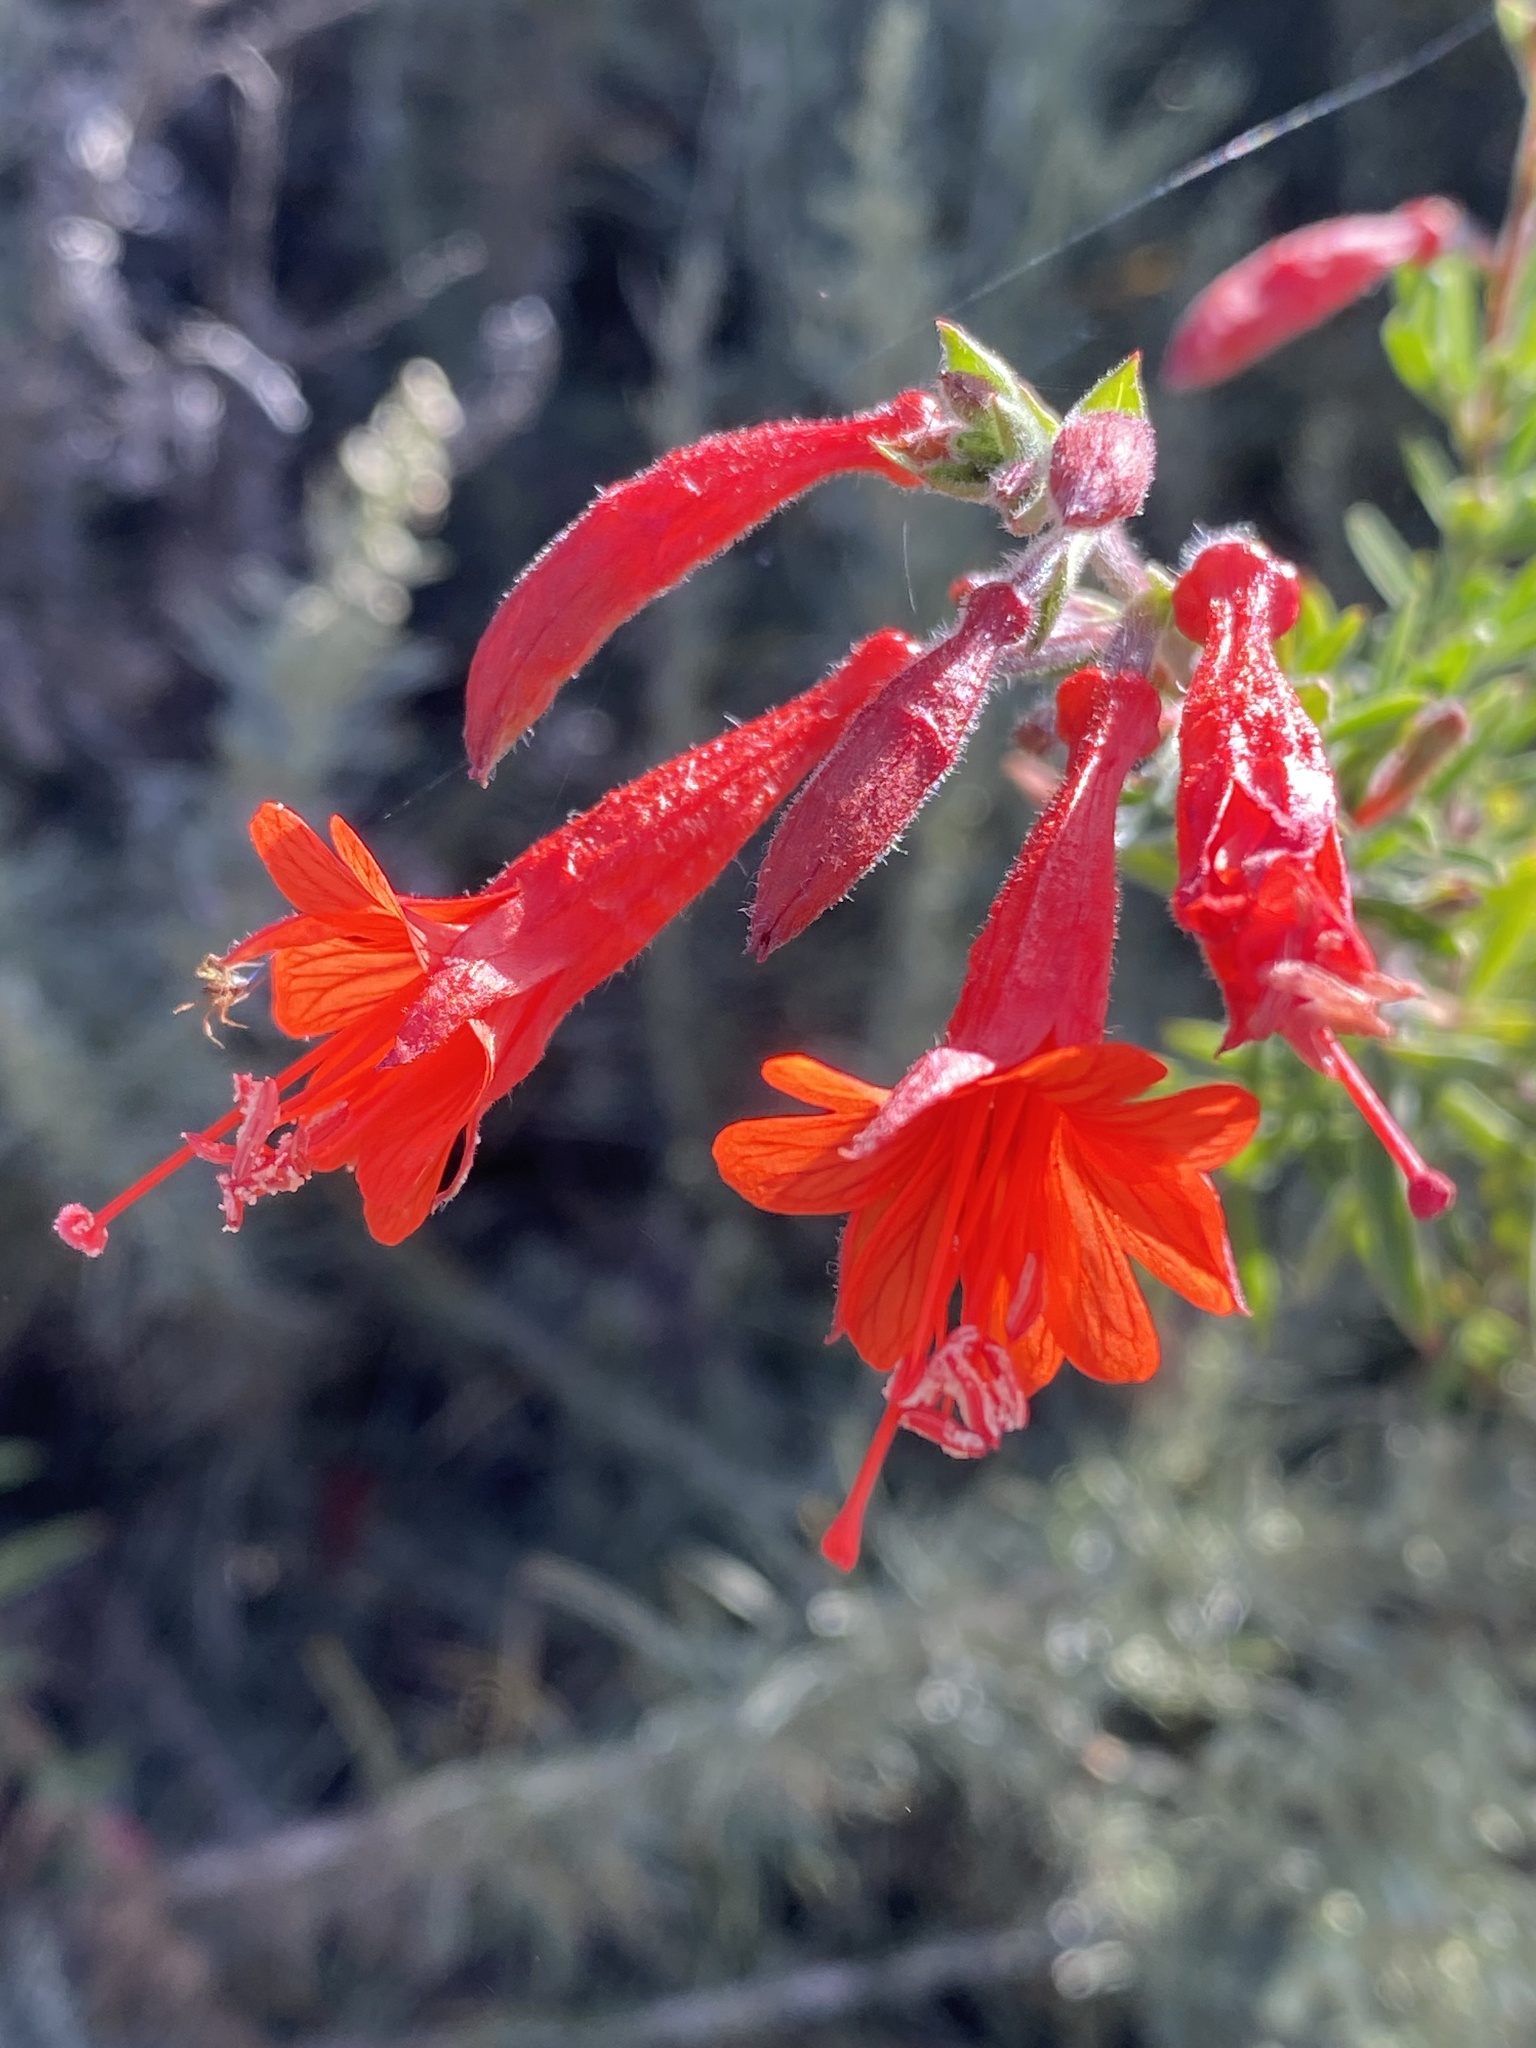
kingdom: Plantae
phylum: Tracheophyta
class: Magnoliopsida
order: Myrtales
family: Onagraceae
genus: Epilobium
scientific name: Epilobium canum
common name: California-fuchsia
